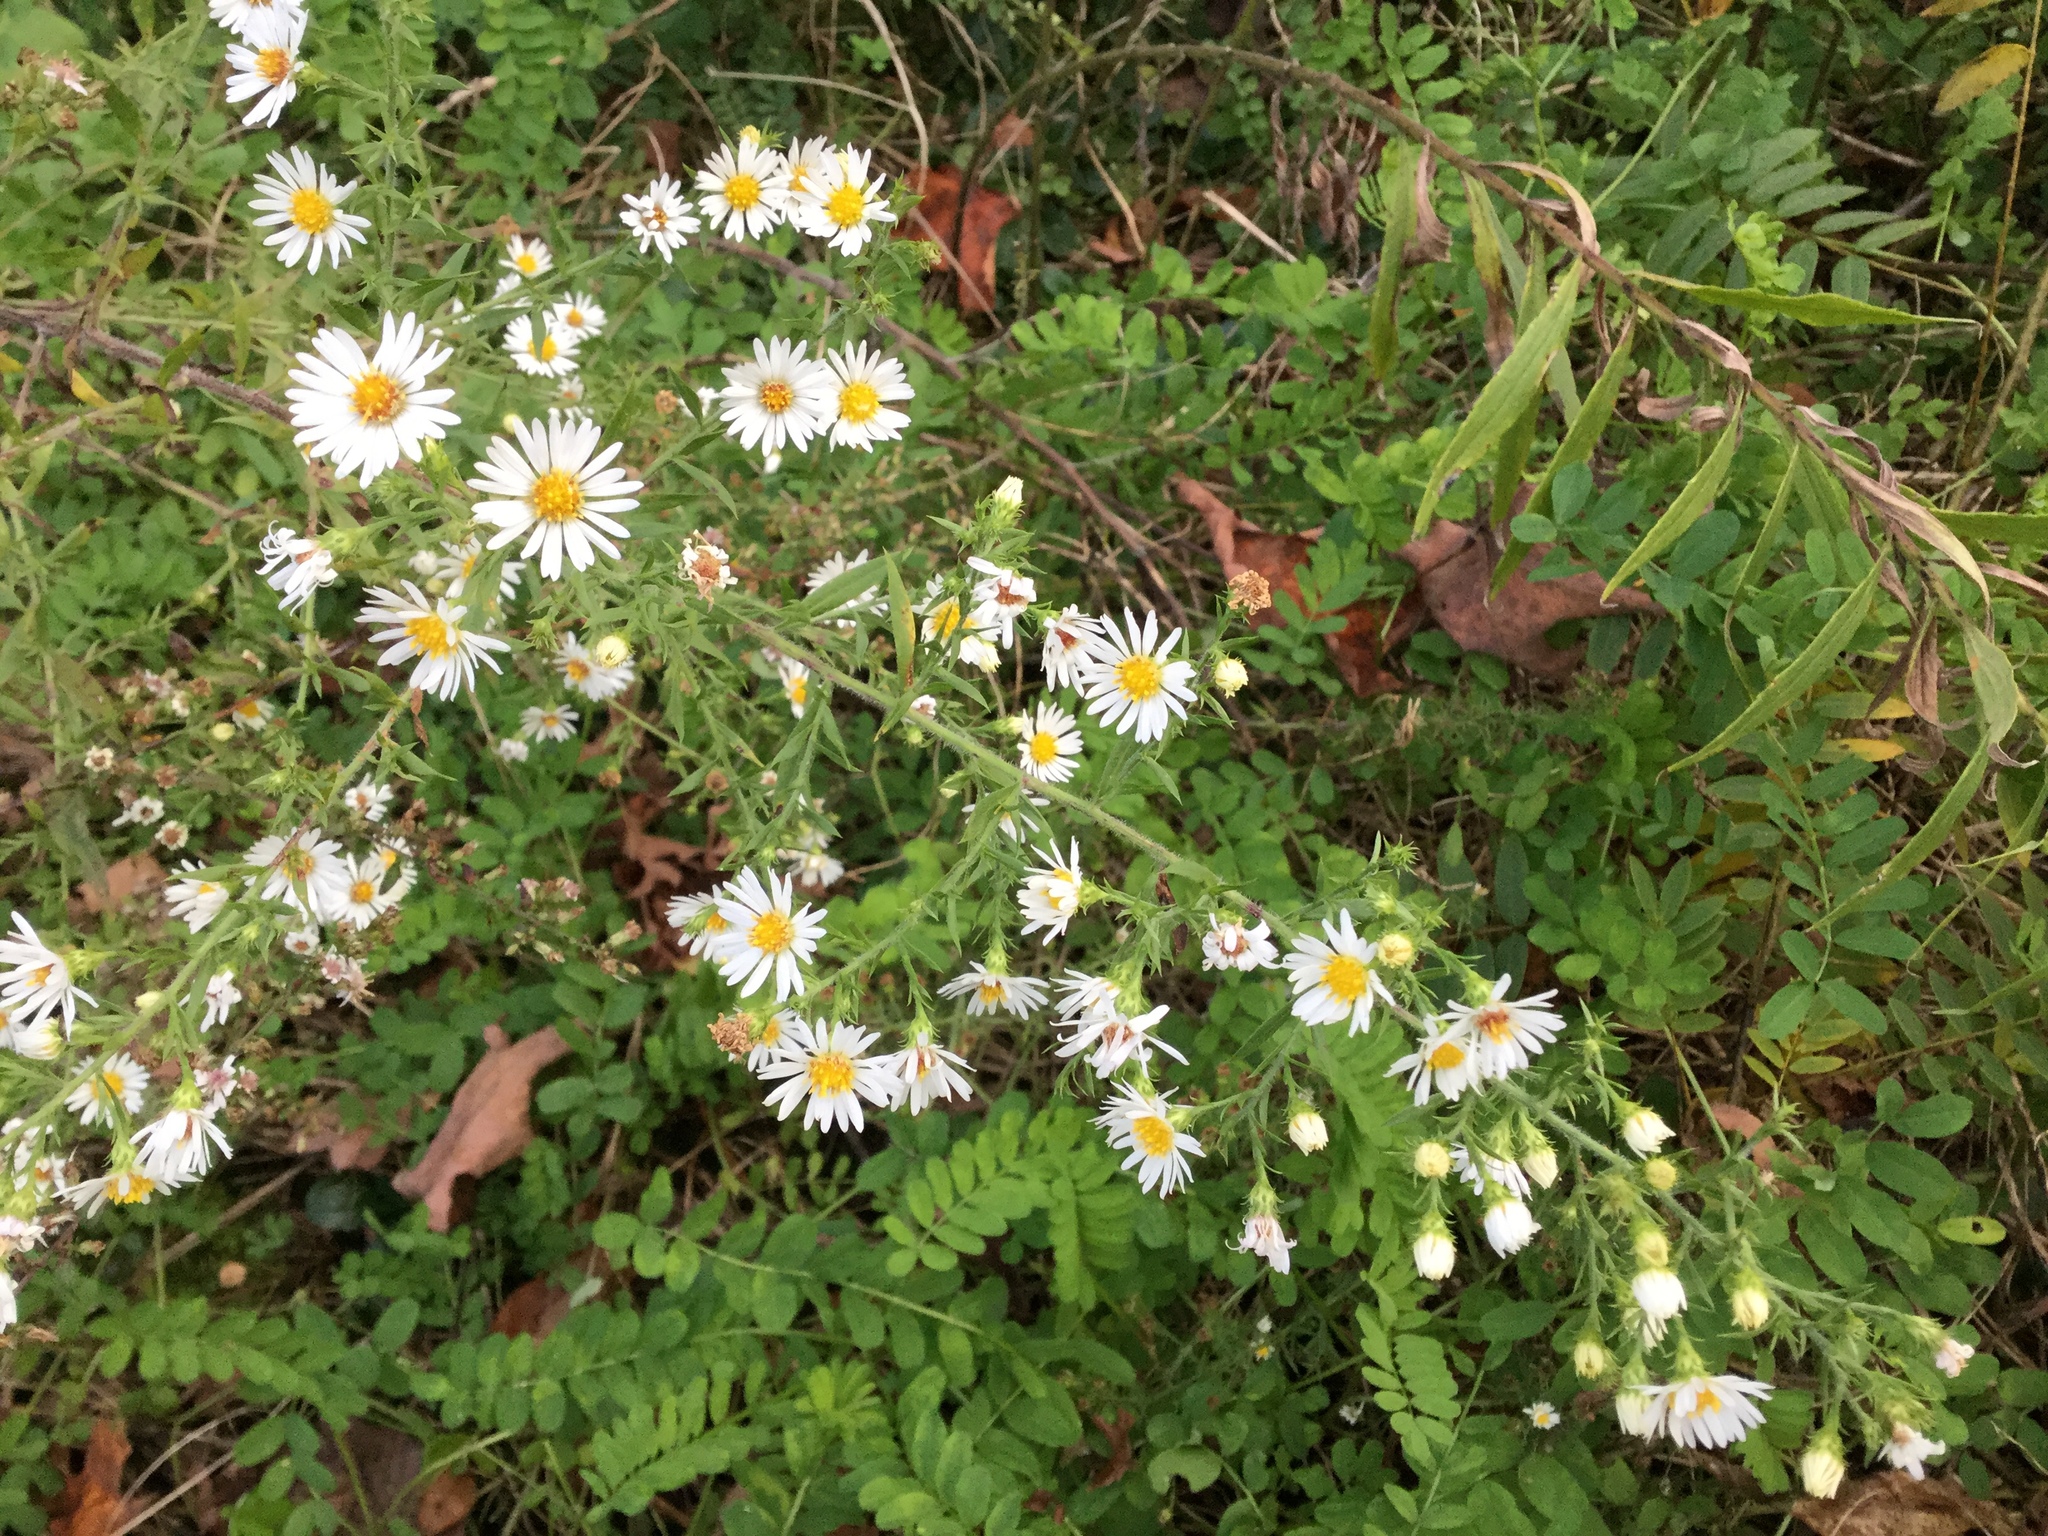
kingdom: Plantae
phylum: Tracheophyta
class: Magnoliopsida
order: Asterales
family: Asteraceae
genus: Symphyotrichum
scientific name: Symphyotrichum pilosum
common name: Awl aster
